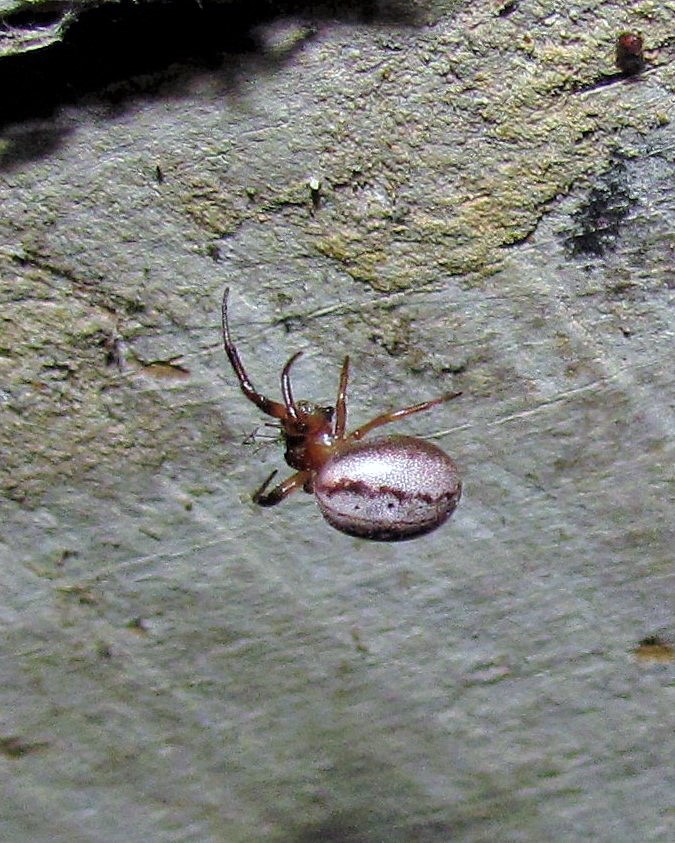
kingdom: Animalia
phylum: Arthropoda
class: Arachnida
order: Araneae
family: Araneidae
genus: Metazygia
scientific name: Metazygia
